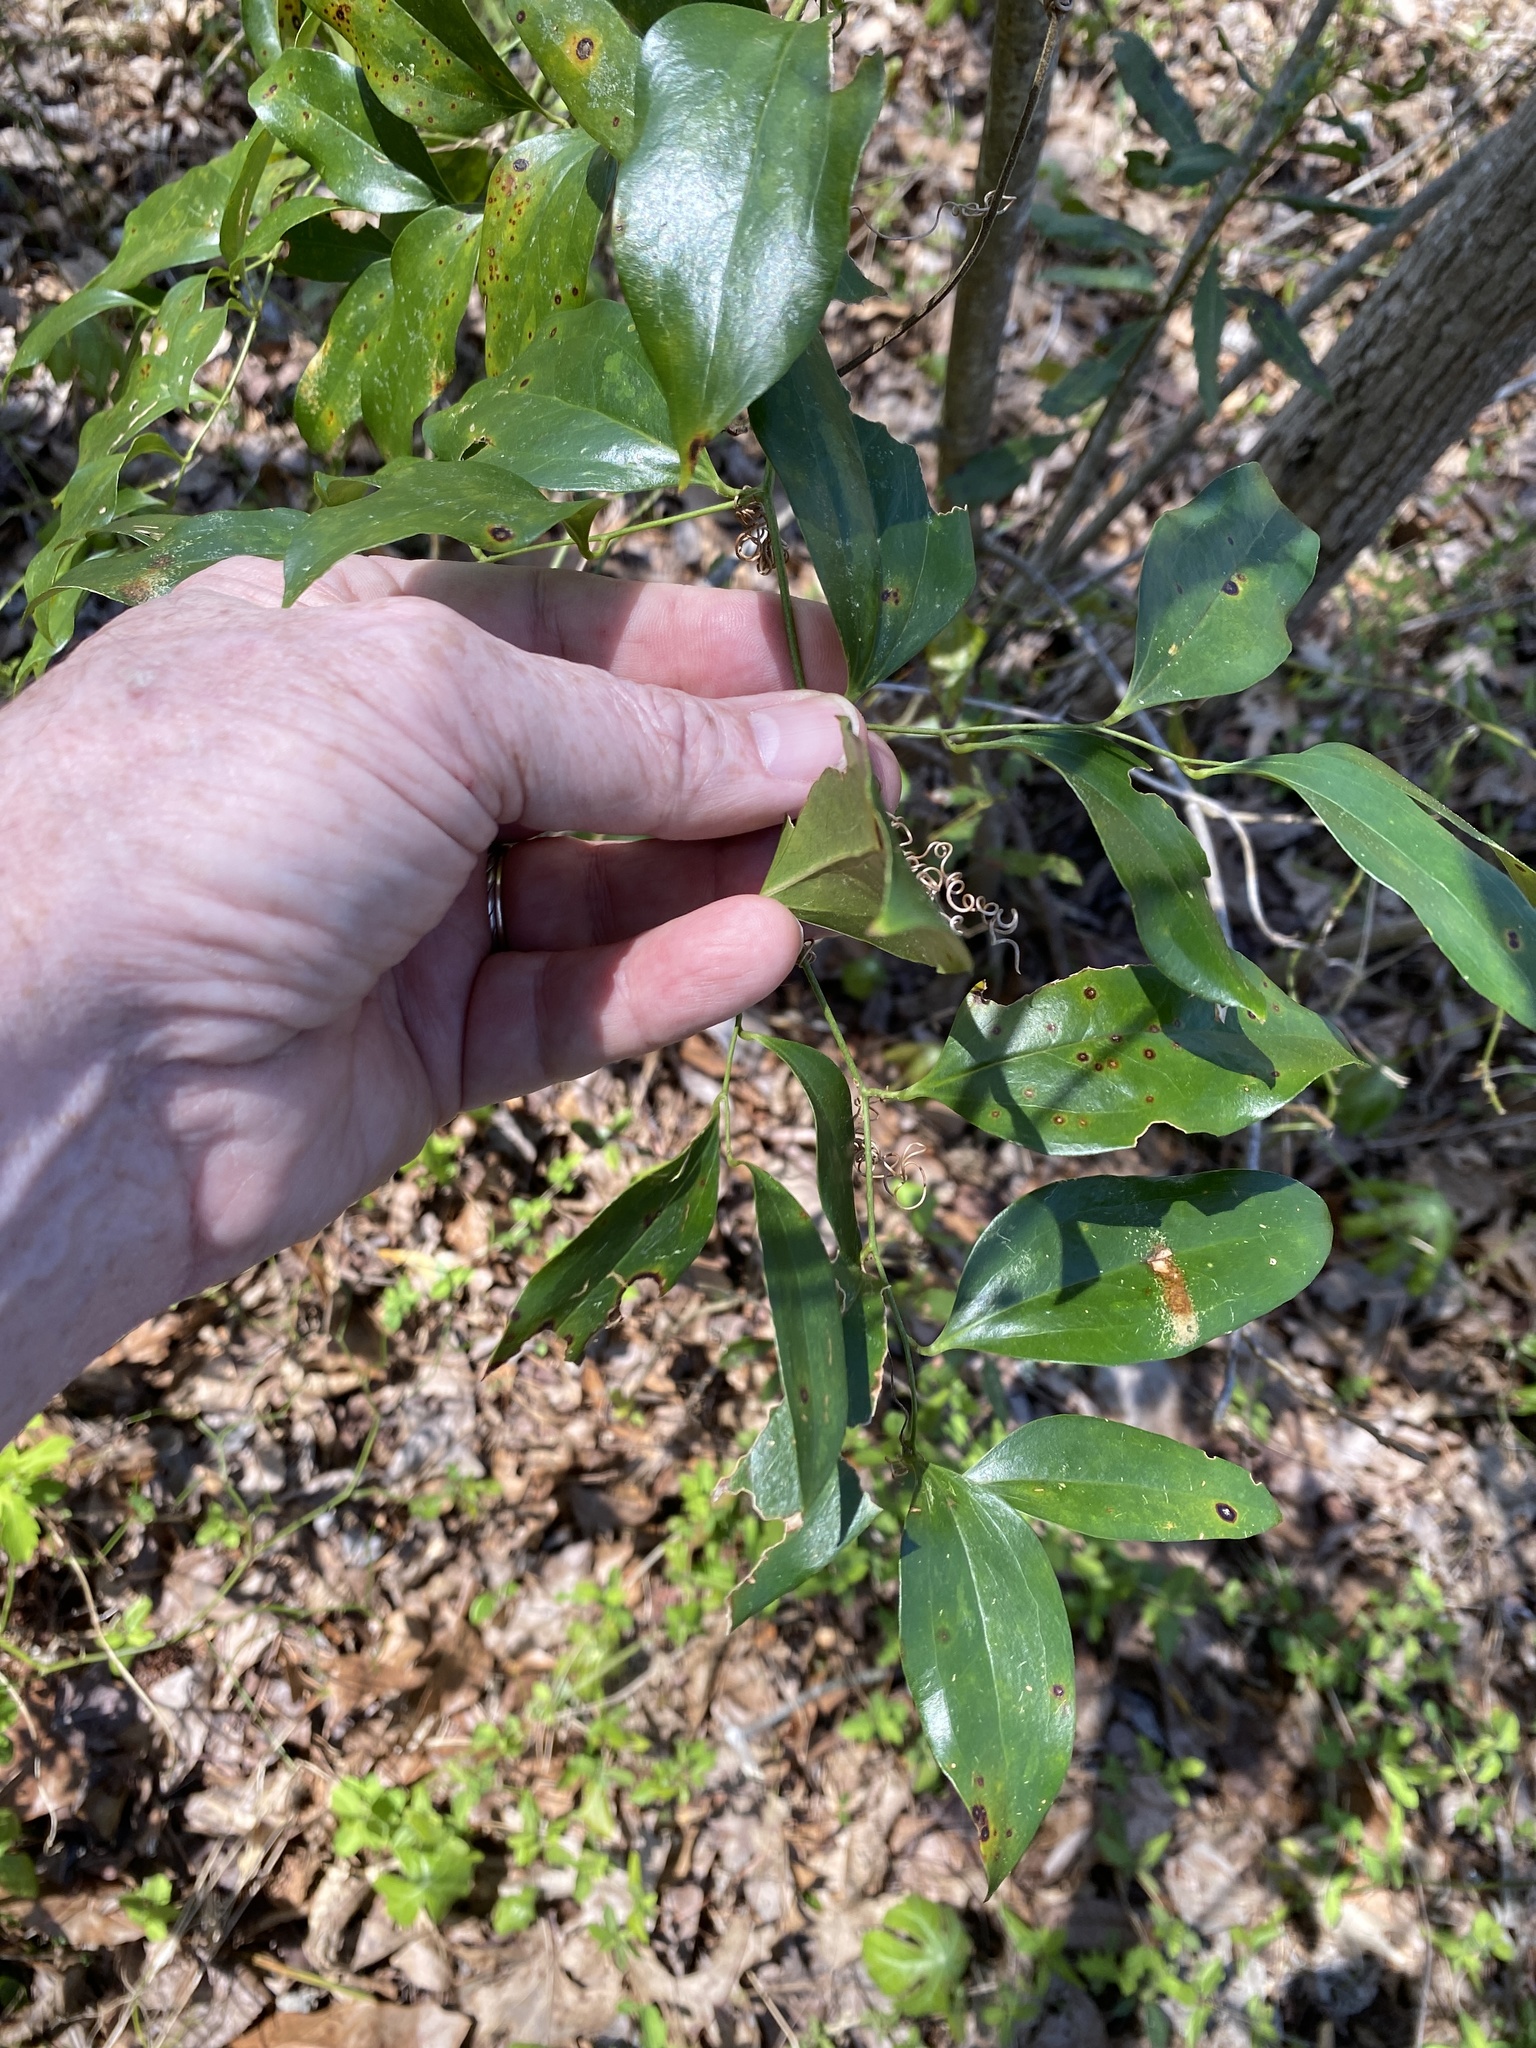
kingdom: Plantae
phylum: Tracheophyta
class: Liliopsida
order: Liliales
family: Smilacaceae
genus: Smilax
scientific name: Smilax maritima
